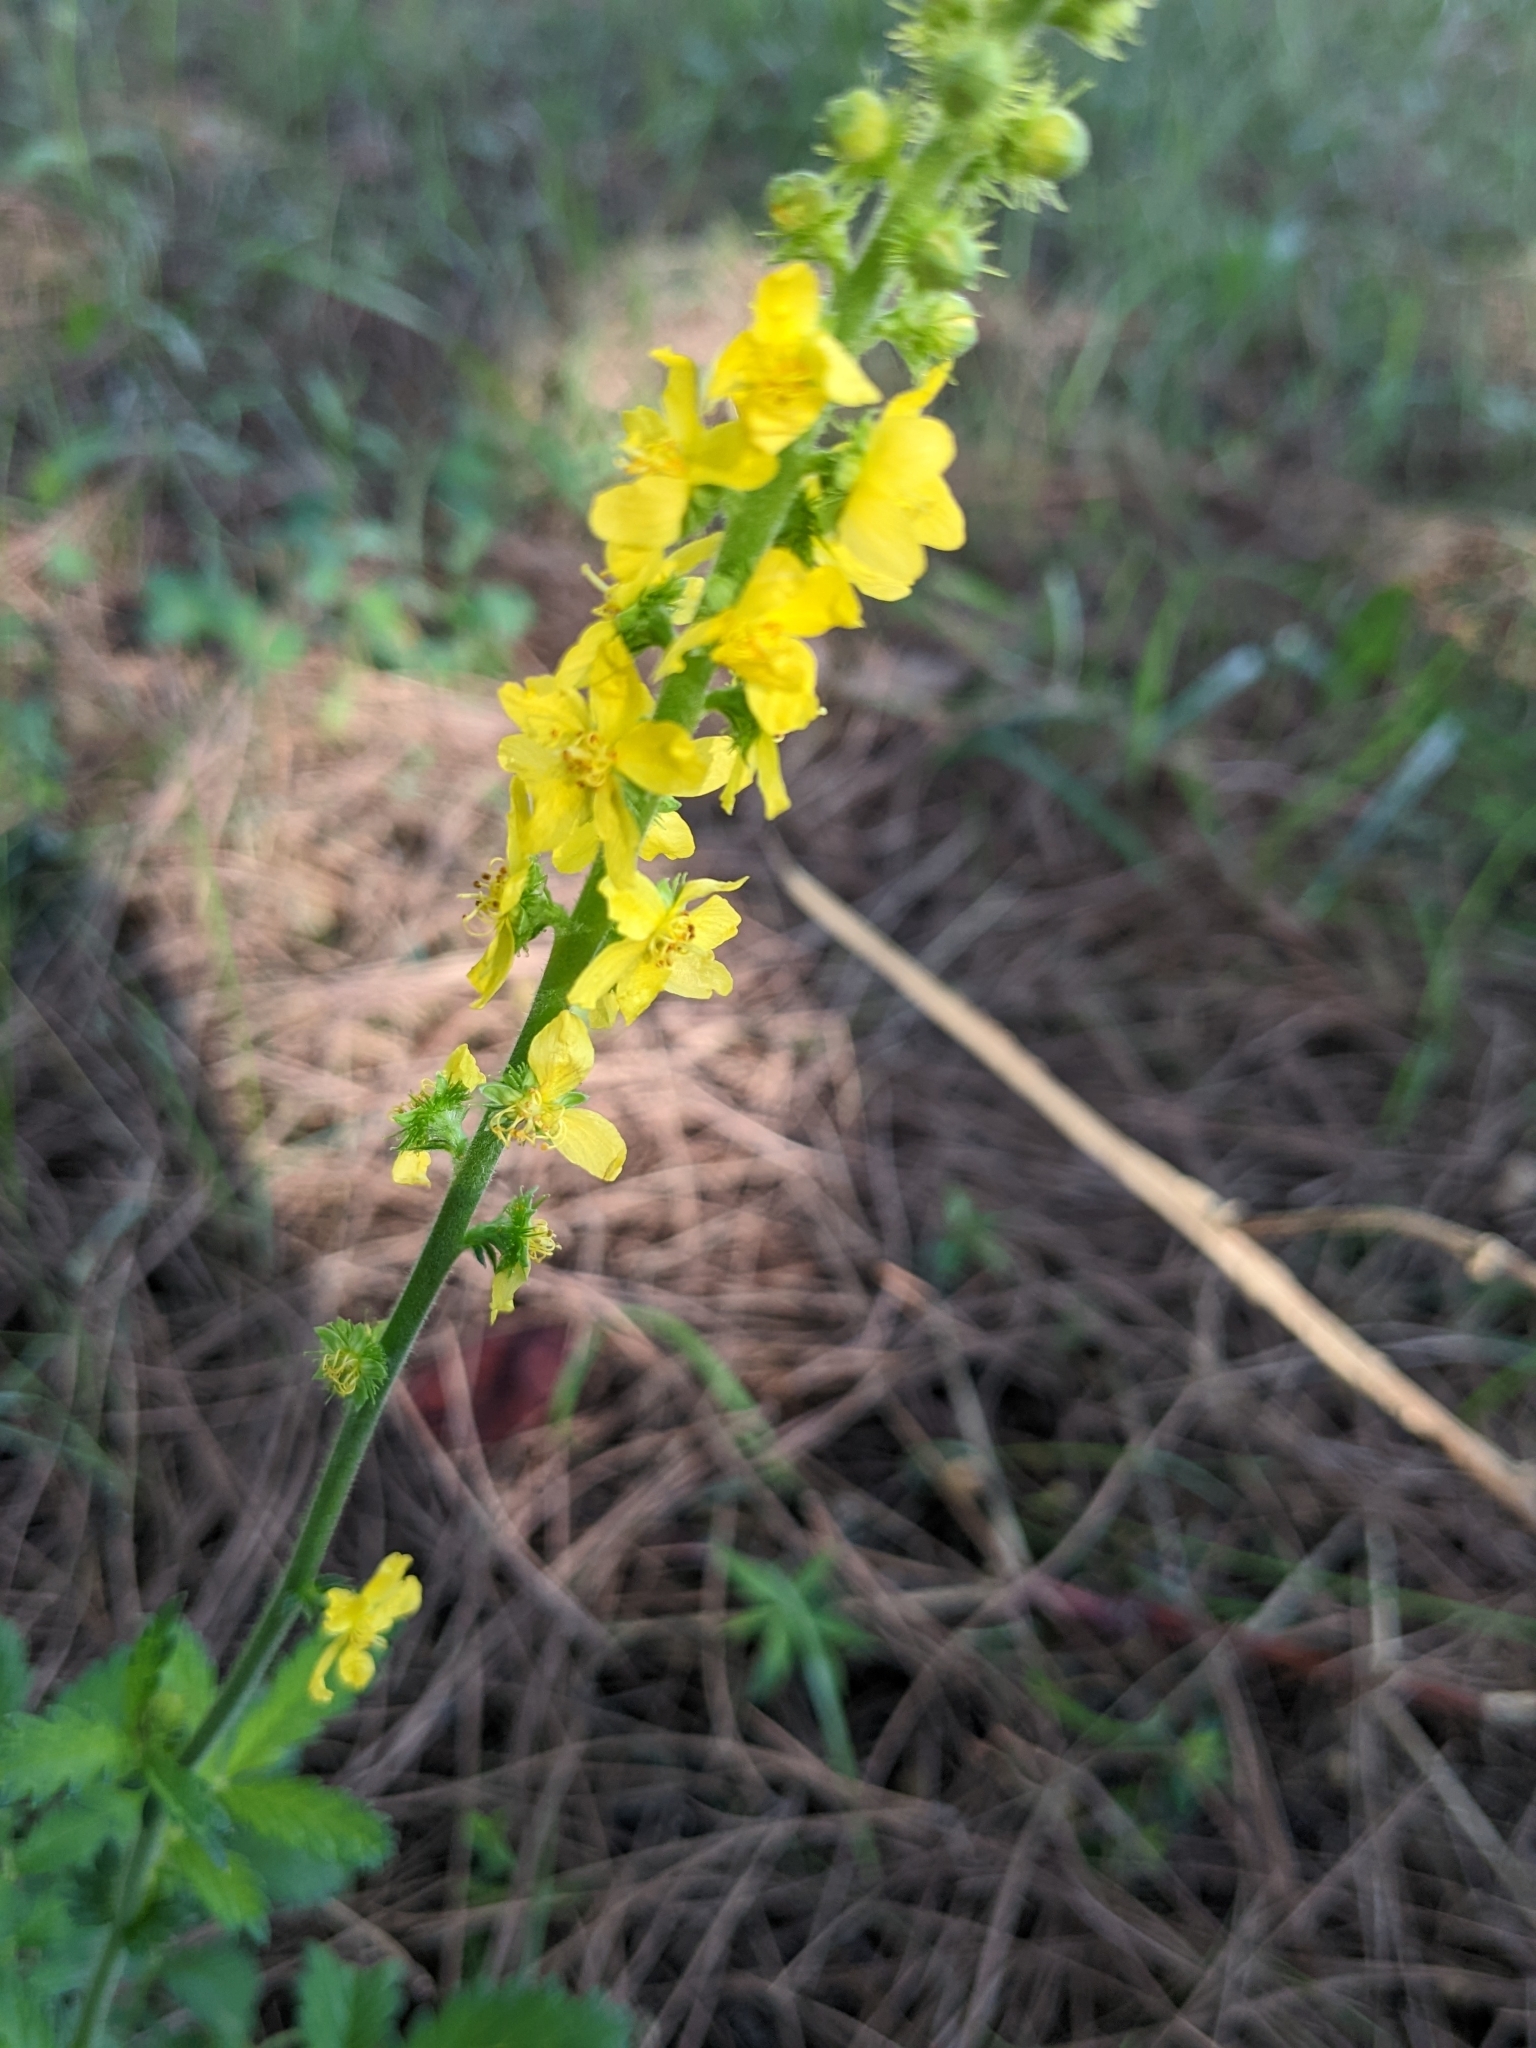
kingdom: Plantae
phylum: Tracheophyta
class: Magnoliopsida
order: Rosales
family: Rosaceae
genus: Agrimonia
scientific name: Agrimonia eupatoria
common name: Agrimony
